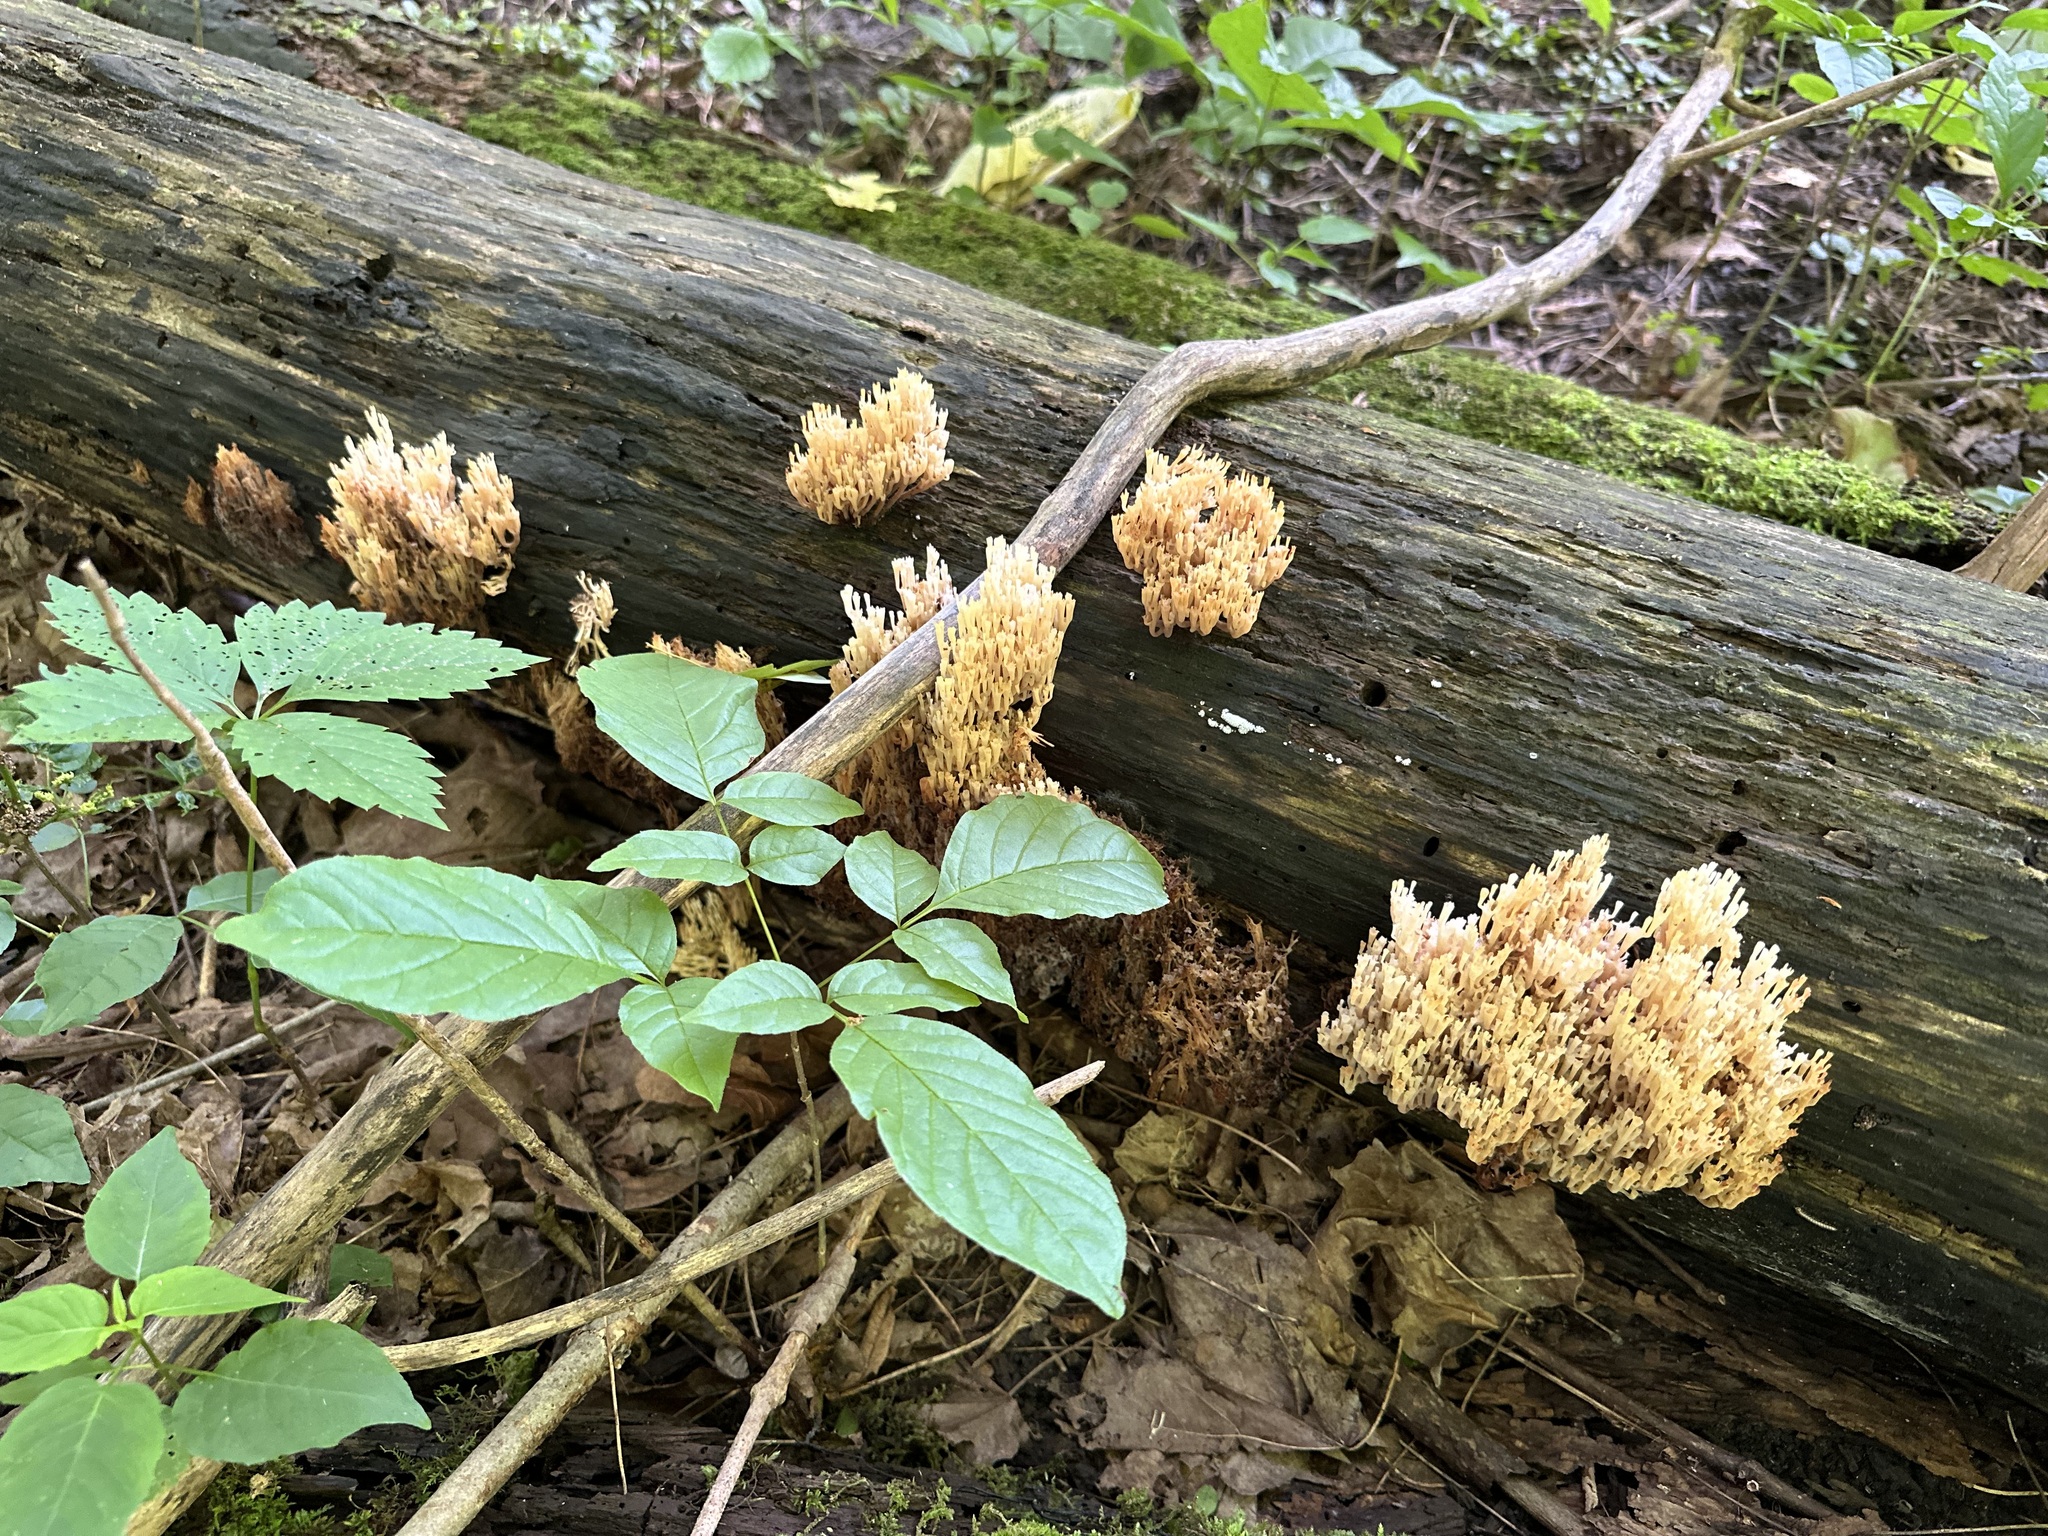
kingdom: Fungi
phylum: Basidiomycota
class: Agaricomycetes
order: Russulales
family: Auriscalpiaceae
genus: Artomyces
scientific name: Artomyces pyxidatus
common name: Crown-tipped coral fungus
